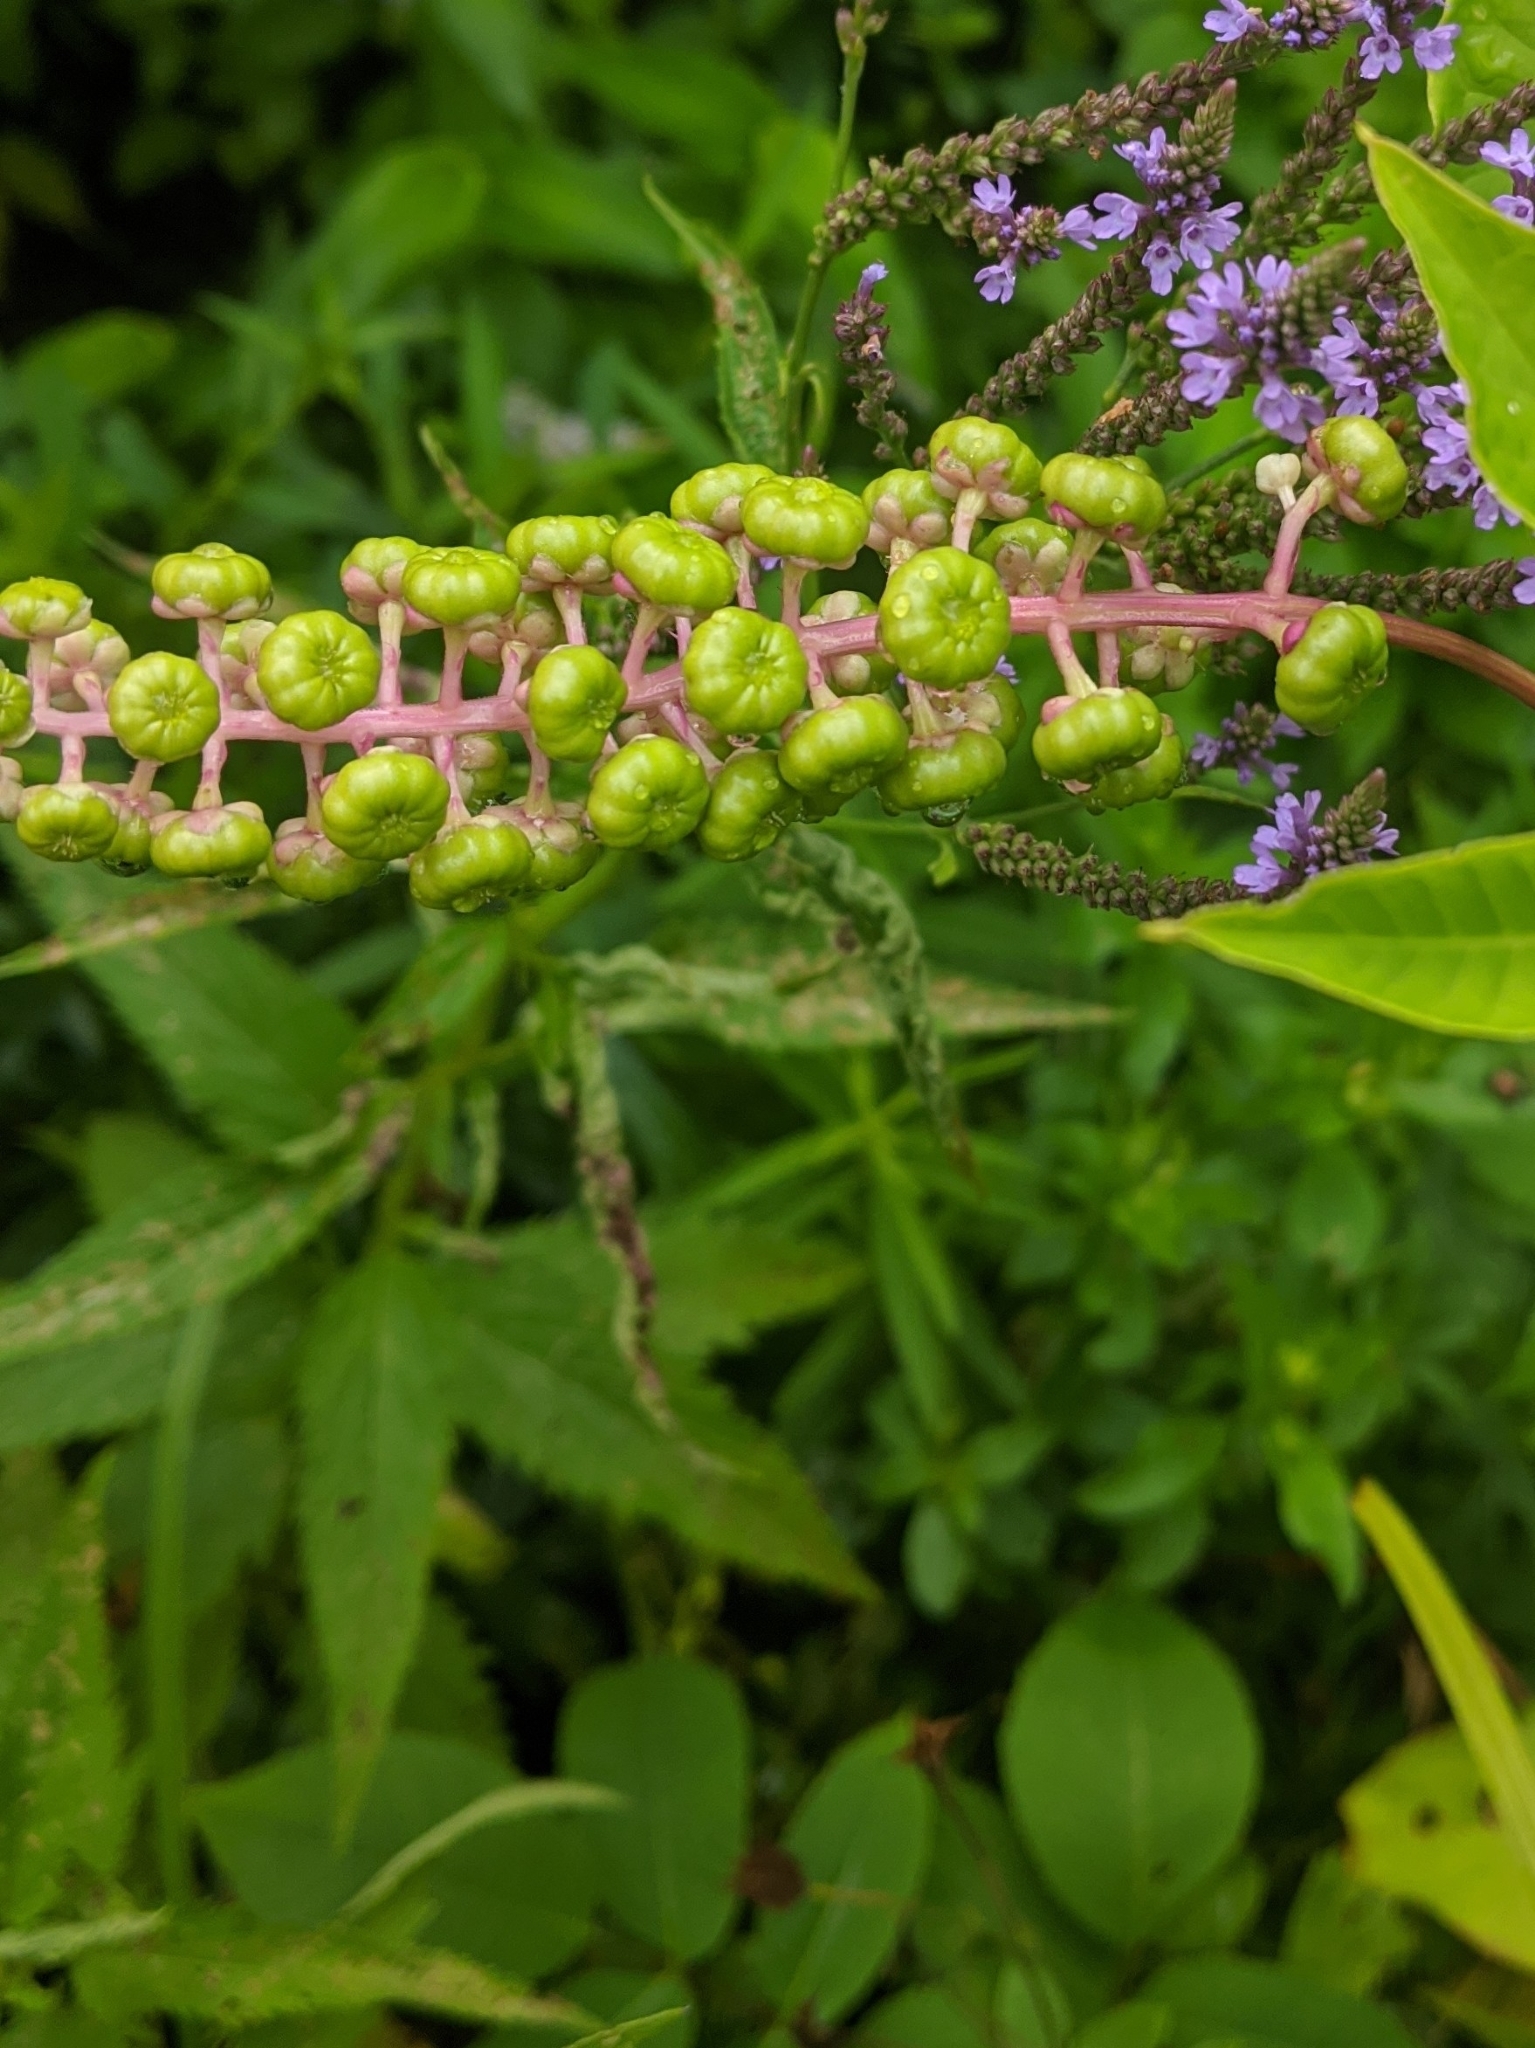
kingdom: Plantae
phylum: Tracheophyta
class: Magnoliopsida
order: Caryophyllales
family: Phytolaccaceae
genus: Phytolacca
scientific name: Phytolacca americana
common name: American pokeweed
